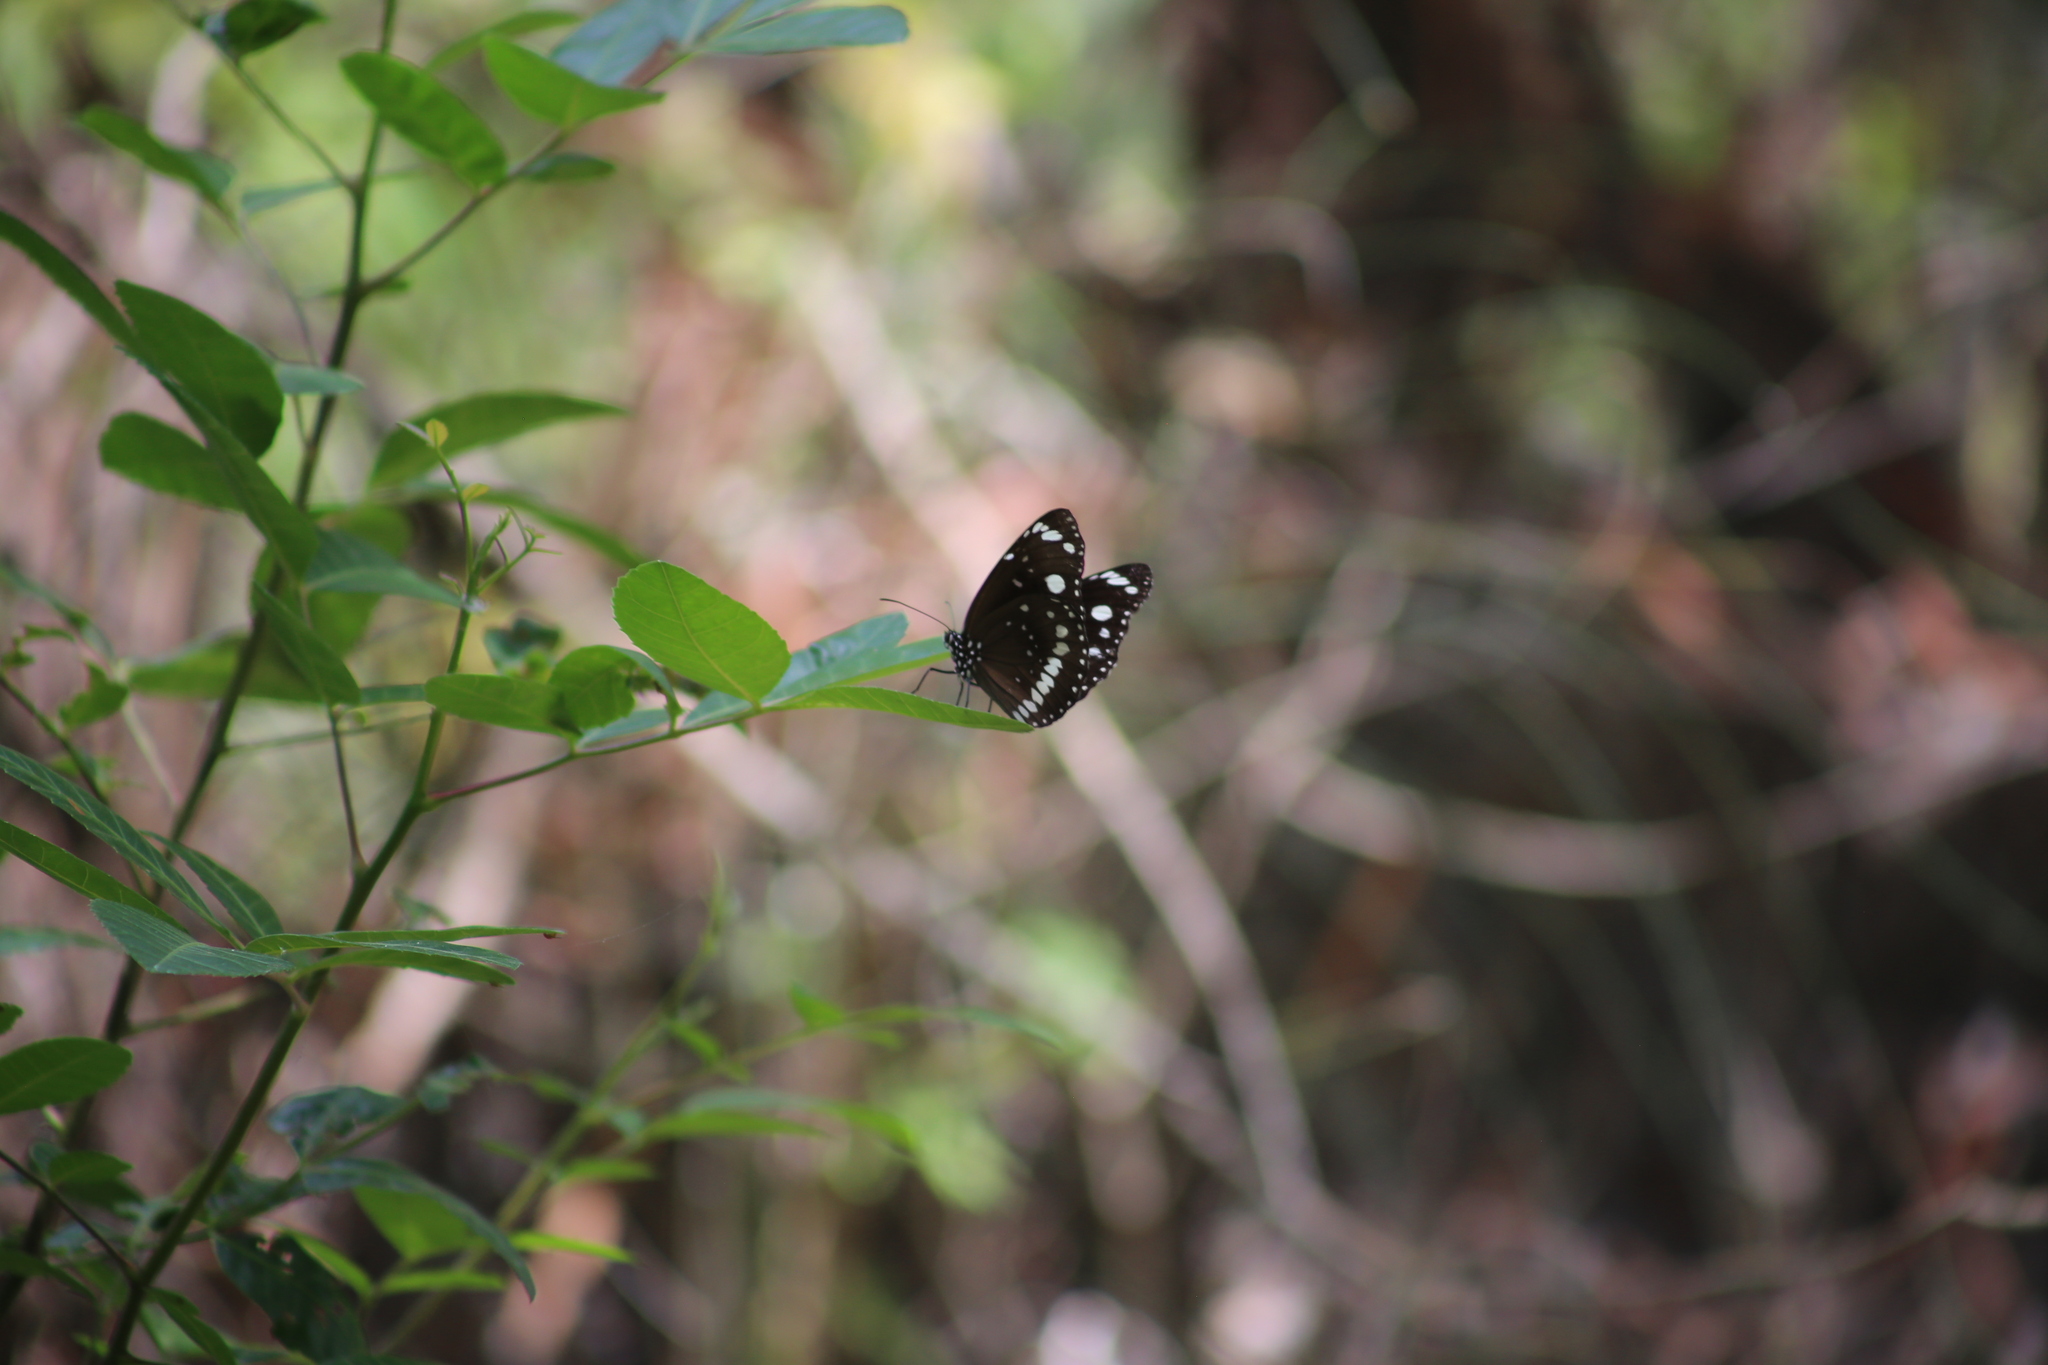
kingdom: Animalia
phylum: Arthropoda
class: Insecta
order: Lepidoptera
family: Nymphalidae
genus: Euploea
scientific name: Euploea core
